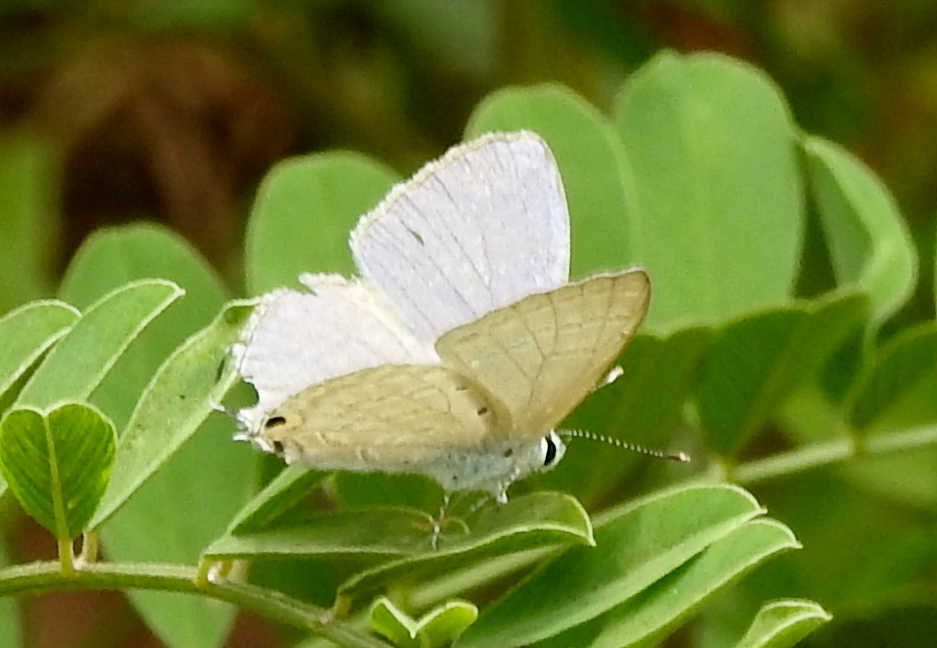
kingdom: Animalia
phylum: Arthropoda
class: Insecta
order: Lepidoptera
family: Lycaenidae
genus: Catochrysops
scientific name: Catochrysops strabo
